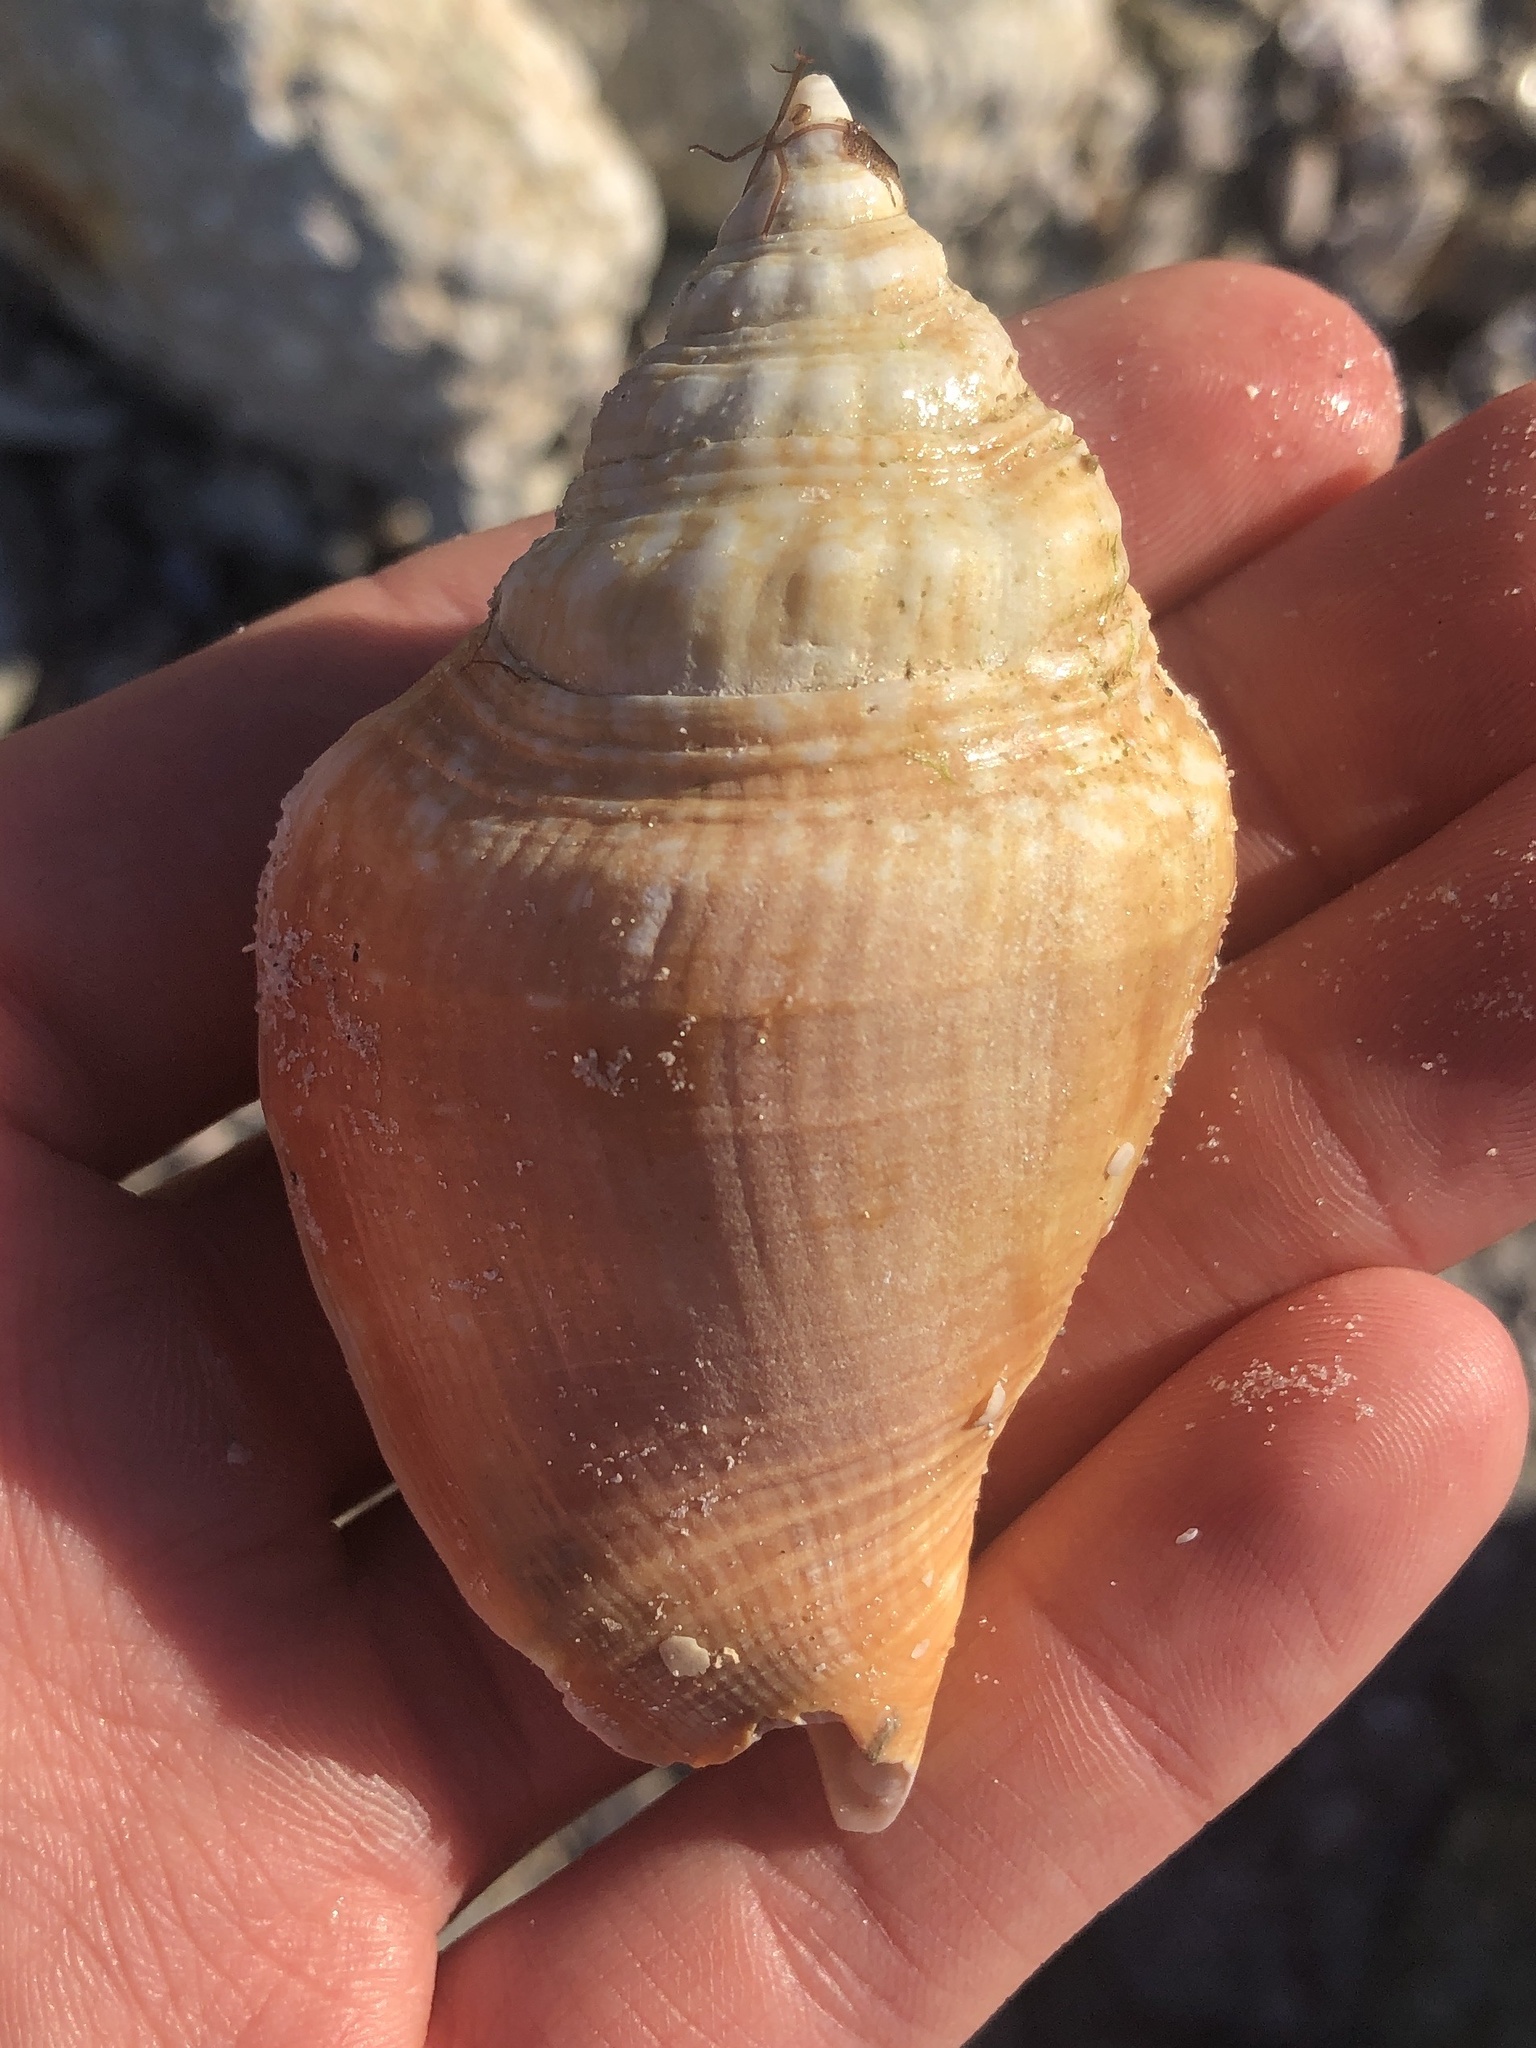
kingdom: Animalia
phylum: Mollusca
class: Gastropoda
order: Littorinimorpha
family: Strombidae
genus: Strombus
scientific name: Strombus alatus
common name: Florida fighting conch
